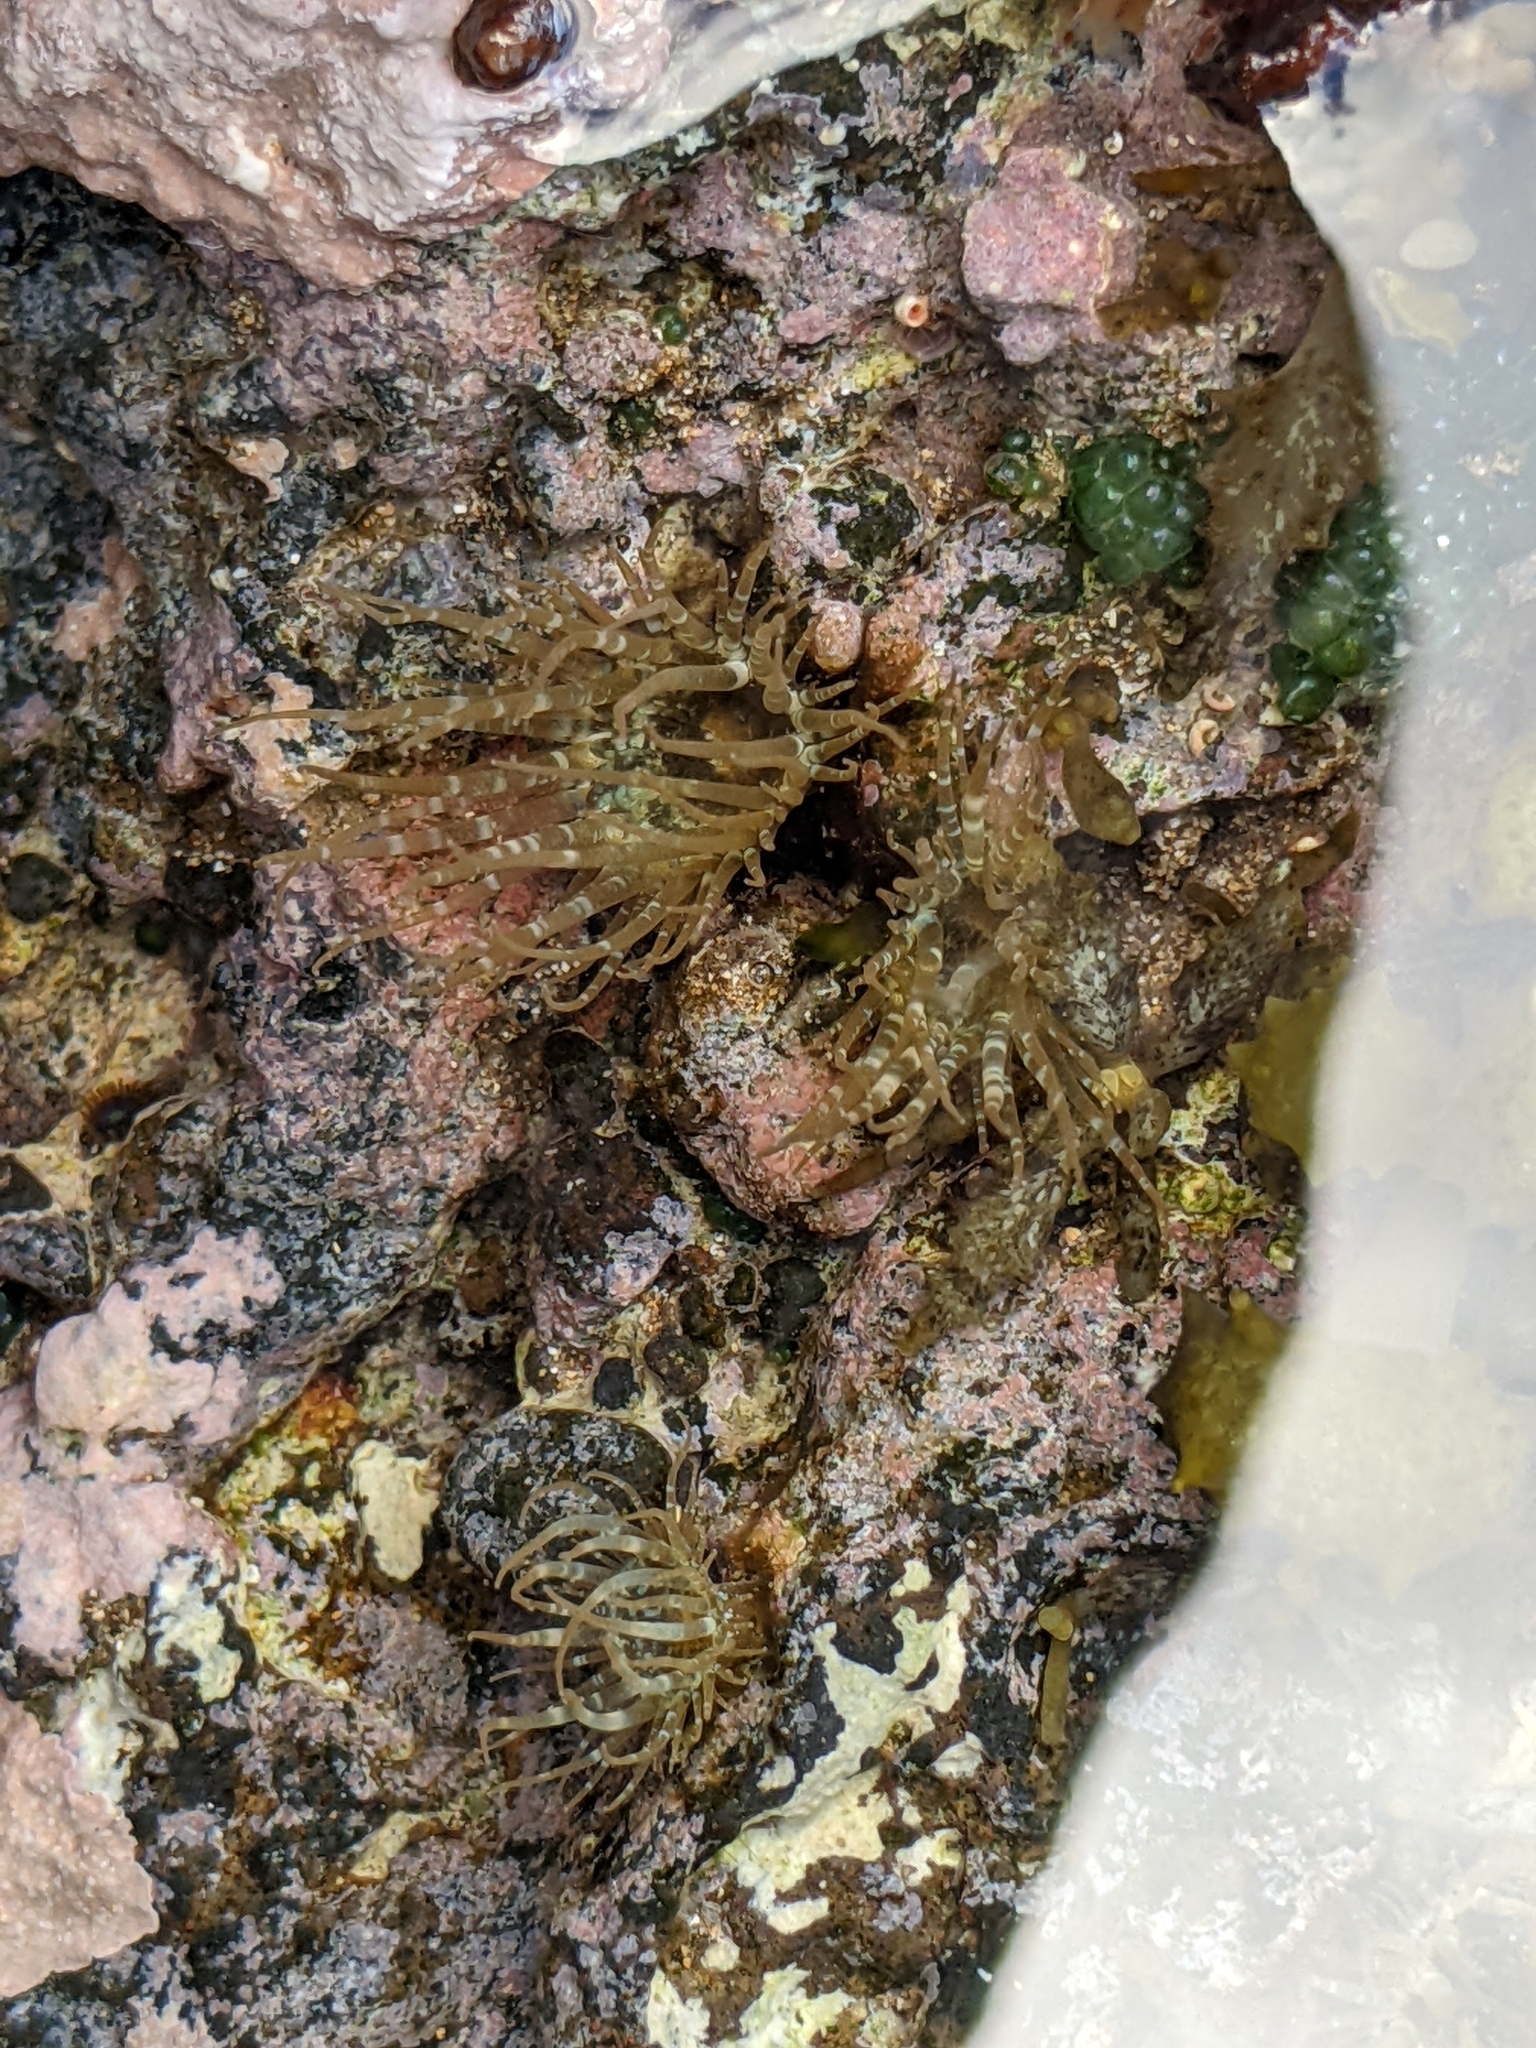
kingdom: Animalia
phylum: Cnidaria
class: Anthozoa
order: Actiniaria
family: Aiptasiidae
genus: Exaiptasia
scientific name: Exaiptasia diaphana
